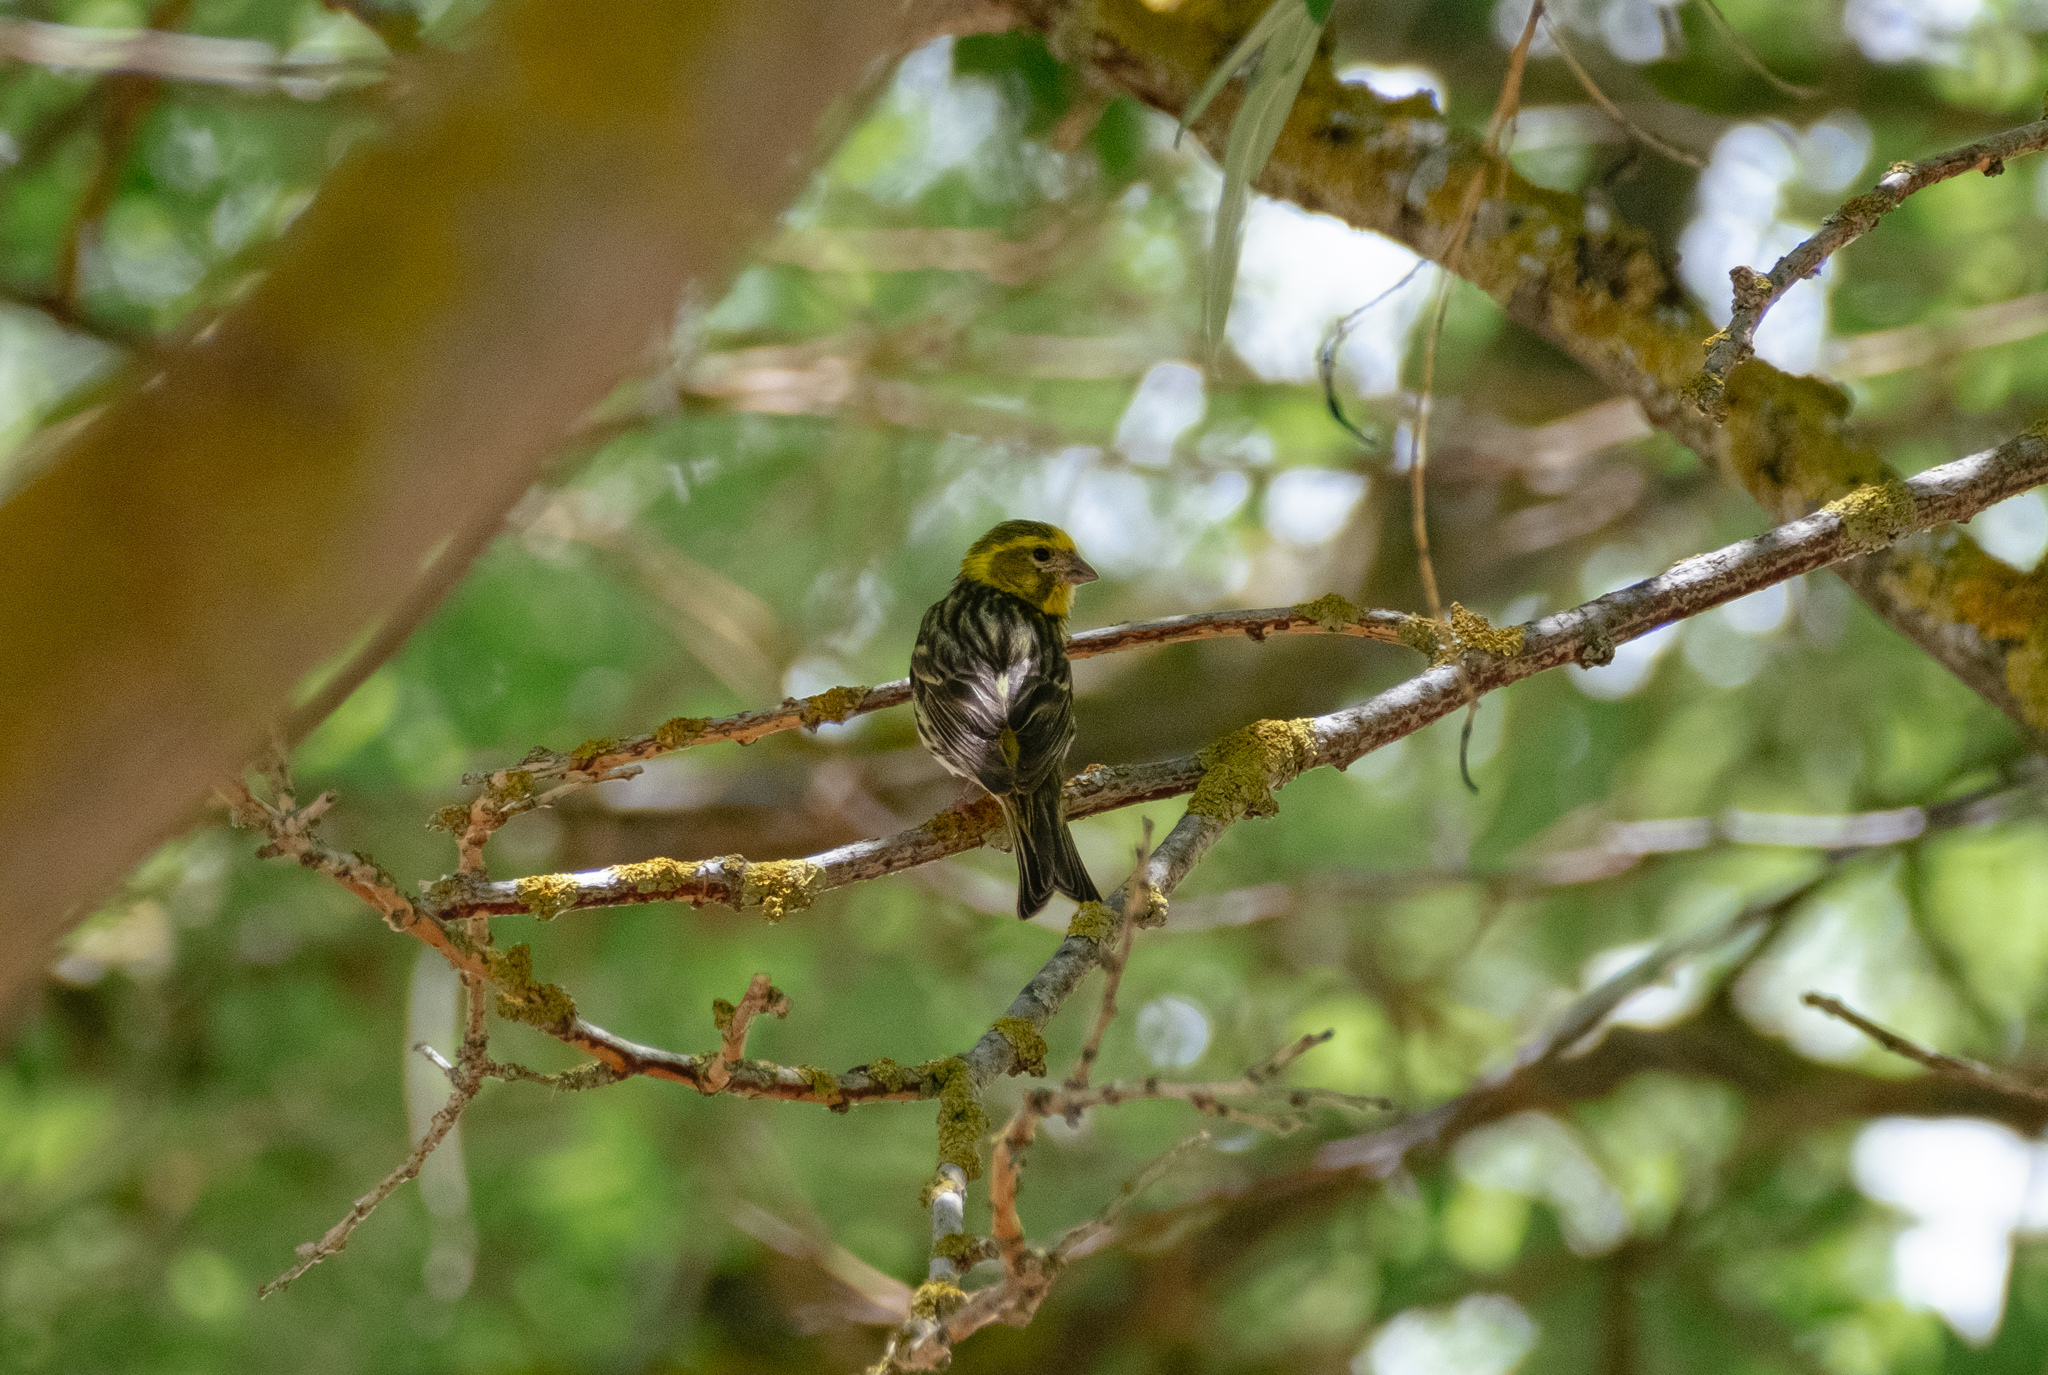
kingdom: Animalia
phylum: Chordata
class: Aves
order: Passeriformes
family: Fringillidae
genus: Serinus
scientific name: Serinus serinus
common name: European serin
